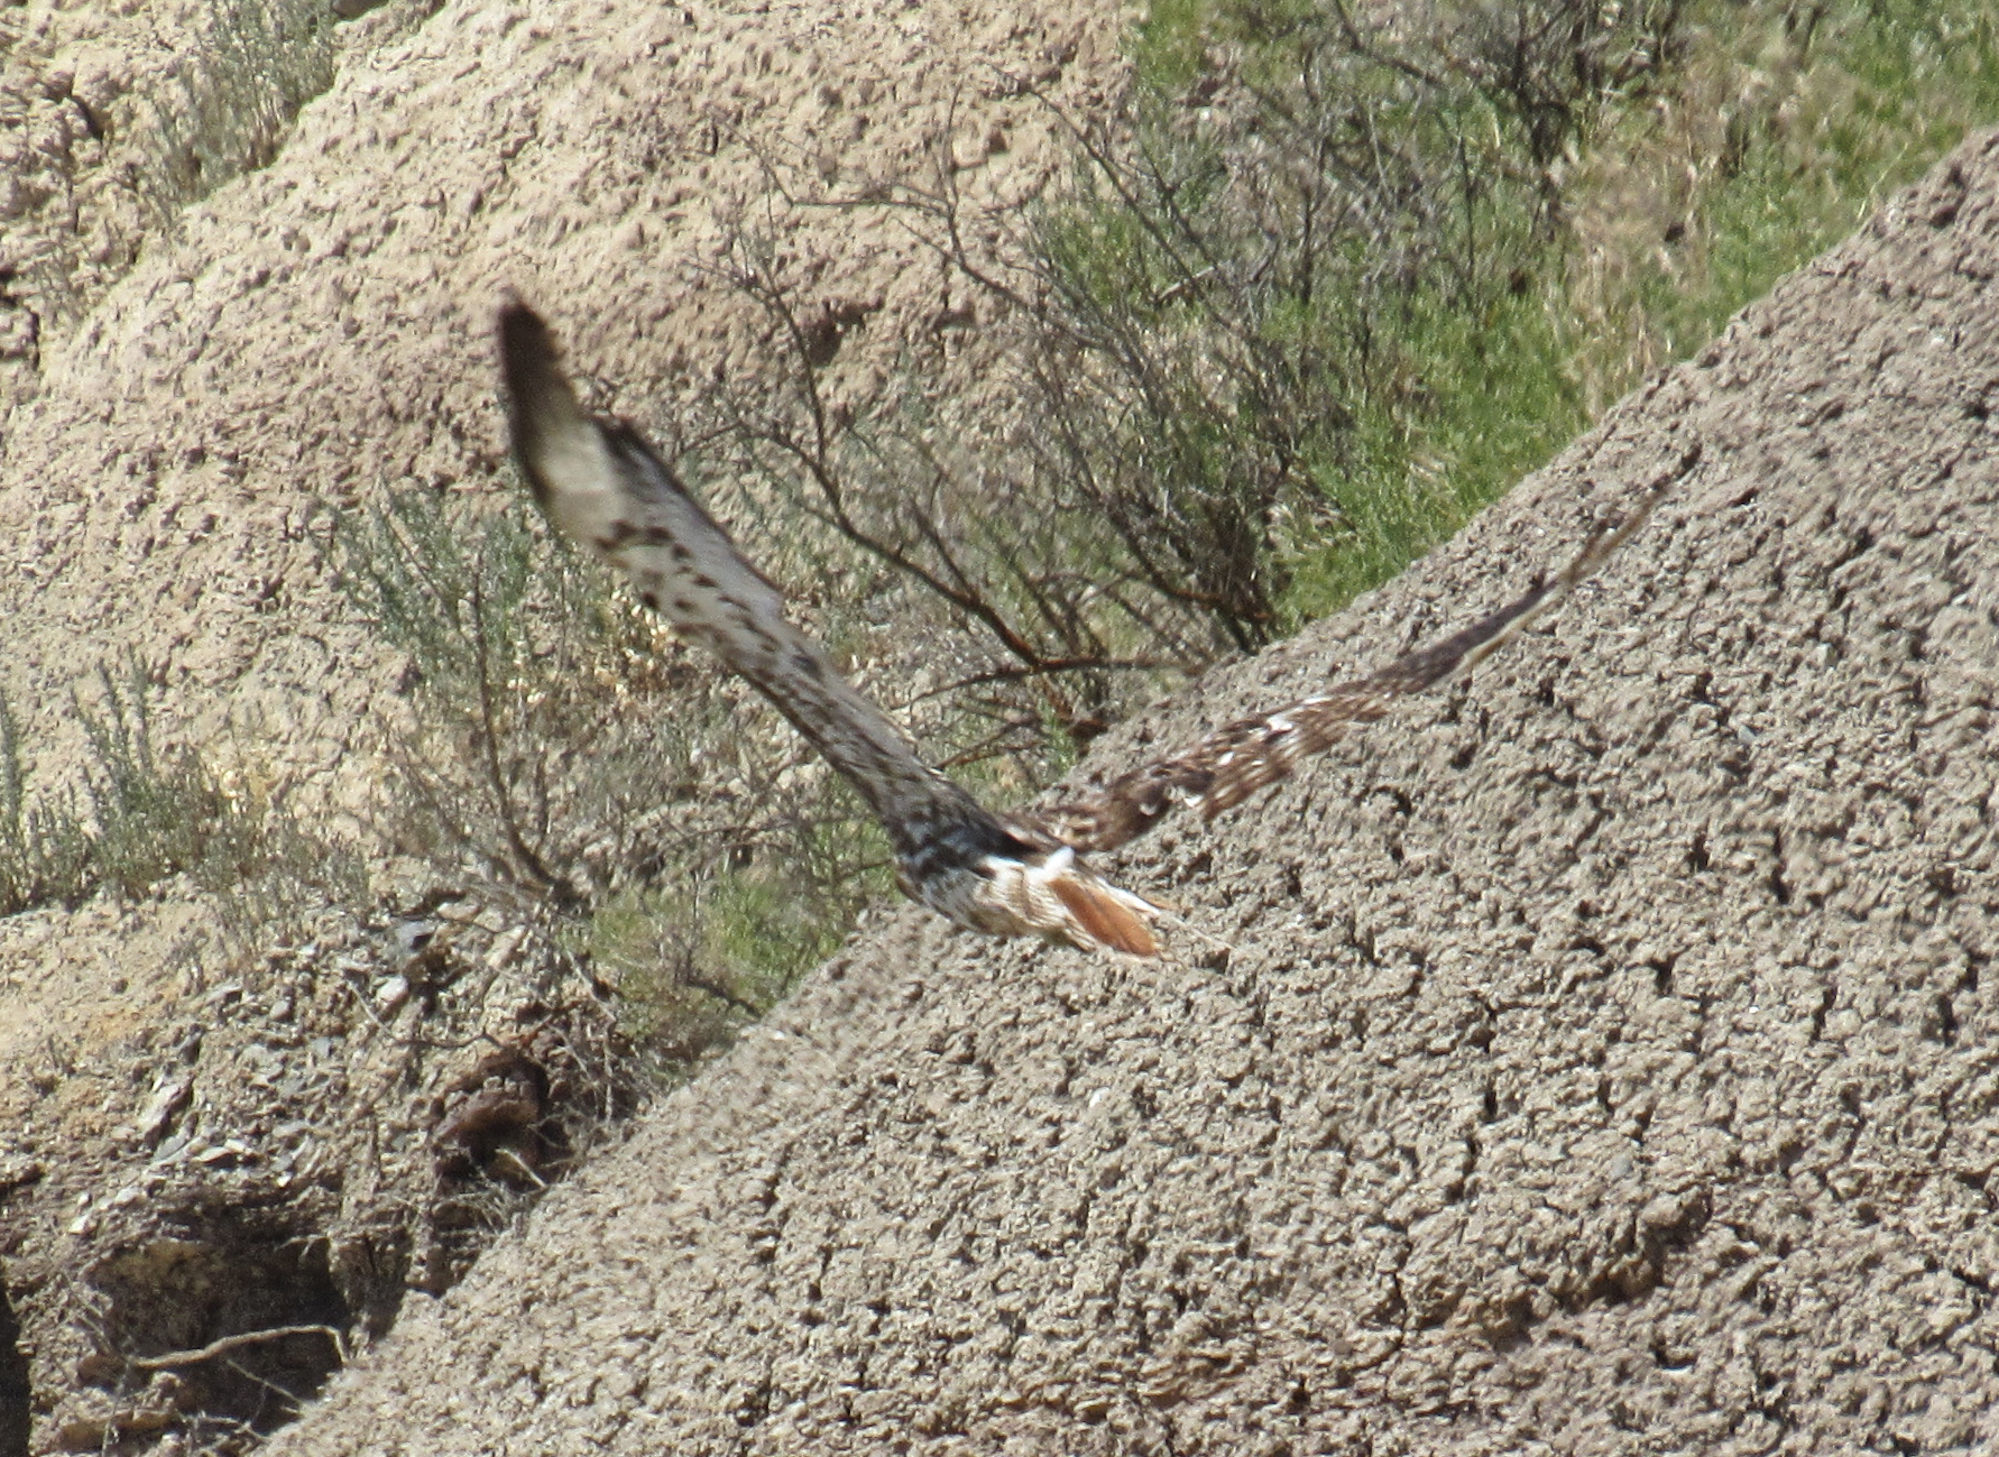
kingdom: Animalia
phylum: Chordata
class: Aves
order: Accipitriformes
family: Accipitridae
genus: Buteo
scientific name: Buteo jamaicensis
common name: Red-tailed hawk
